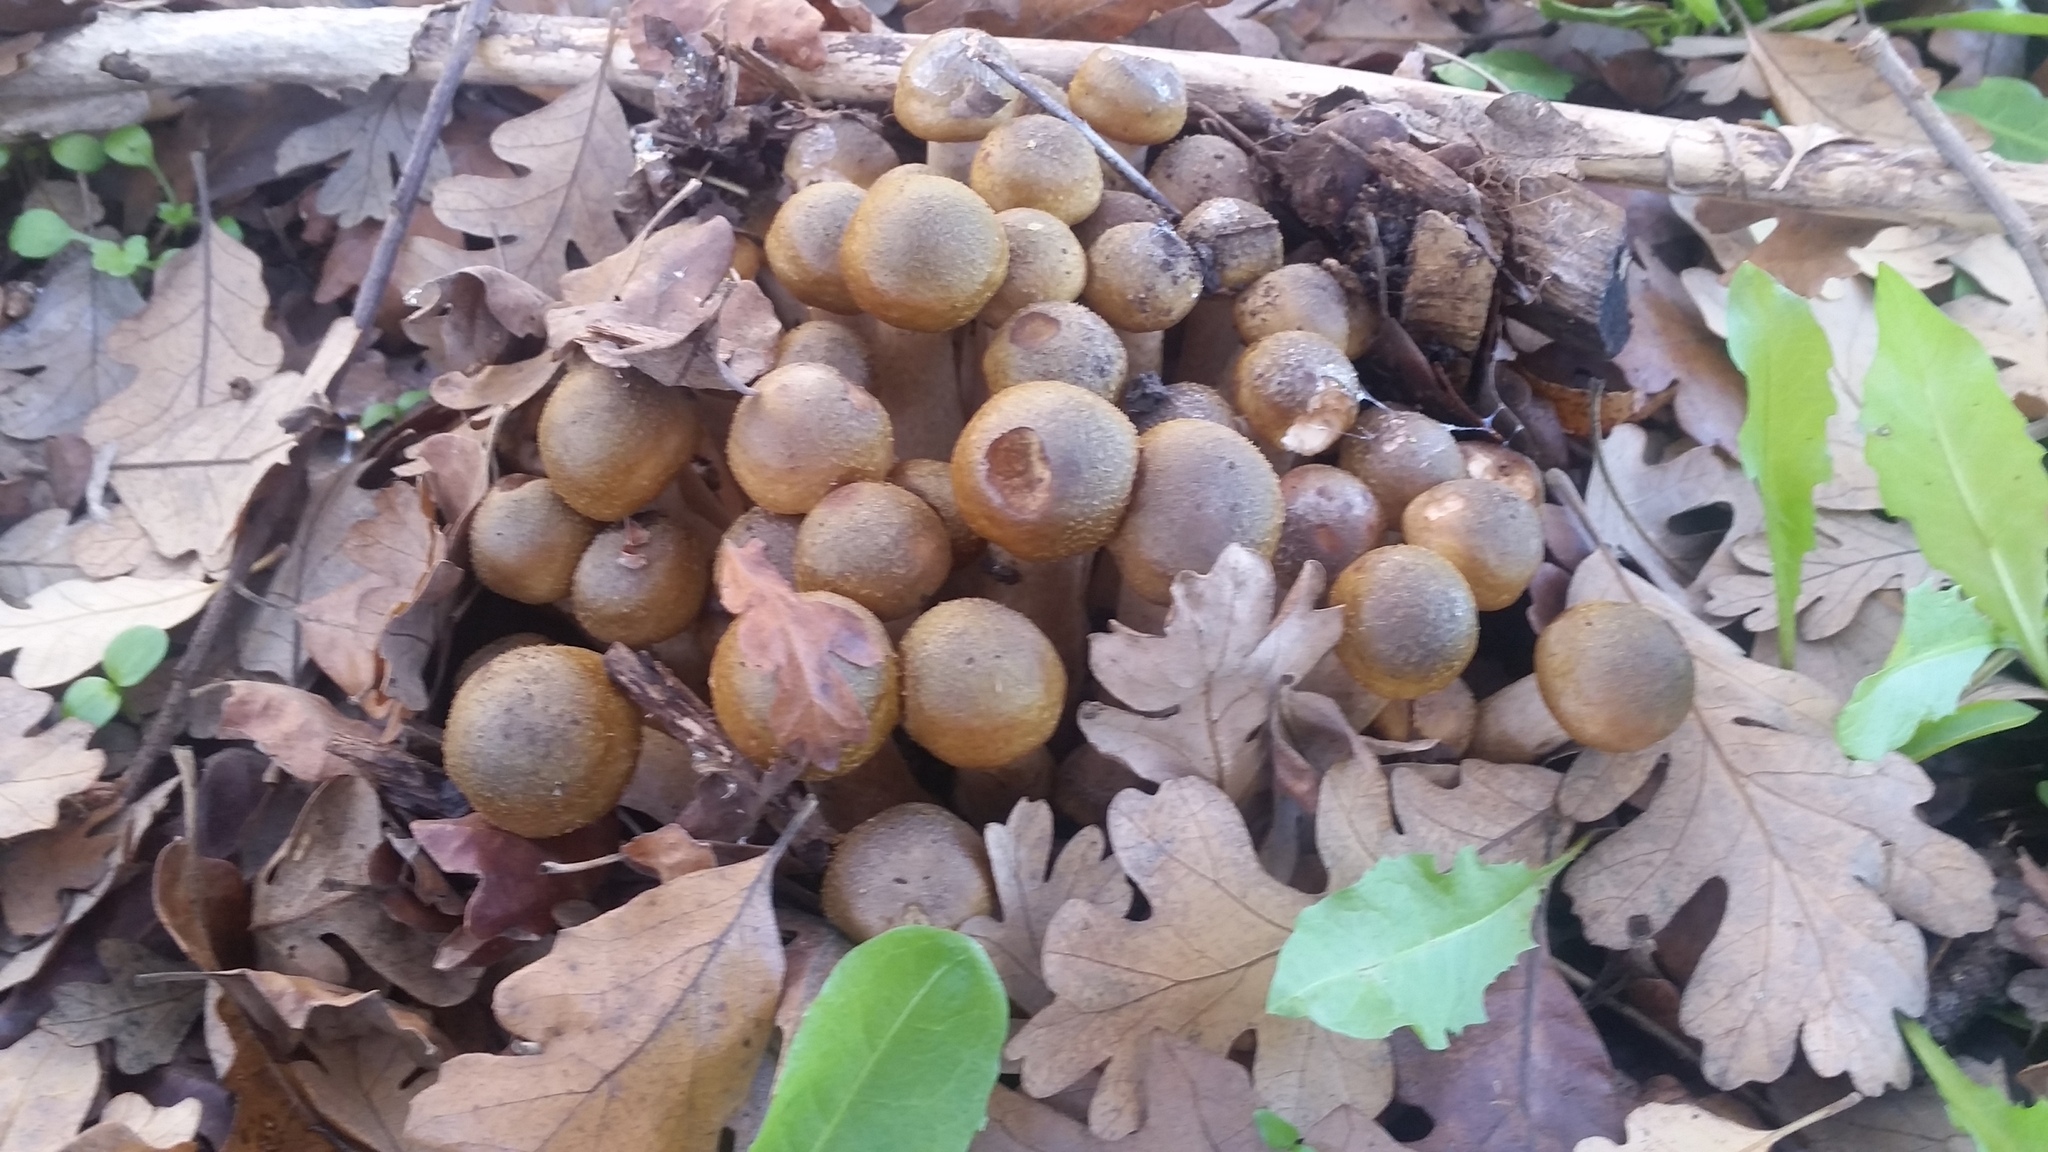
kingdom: Fungi
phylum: Basidiomycota
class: Agaricomycetes
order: Agaricales
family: Physalacriaceae
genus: Armillaria
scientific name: Armillaria mellea
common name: Honey fungus
